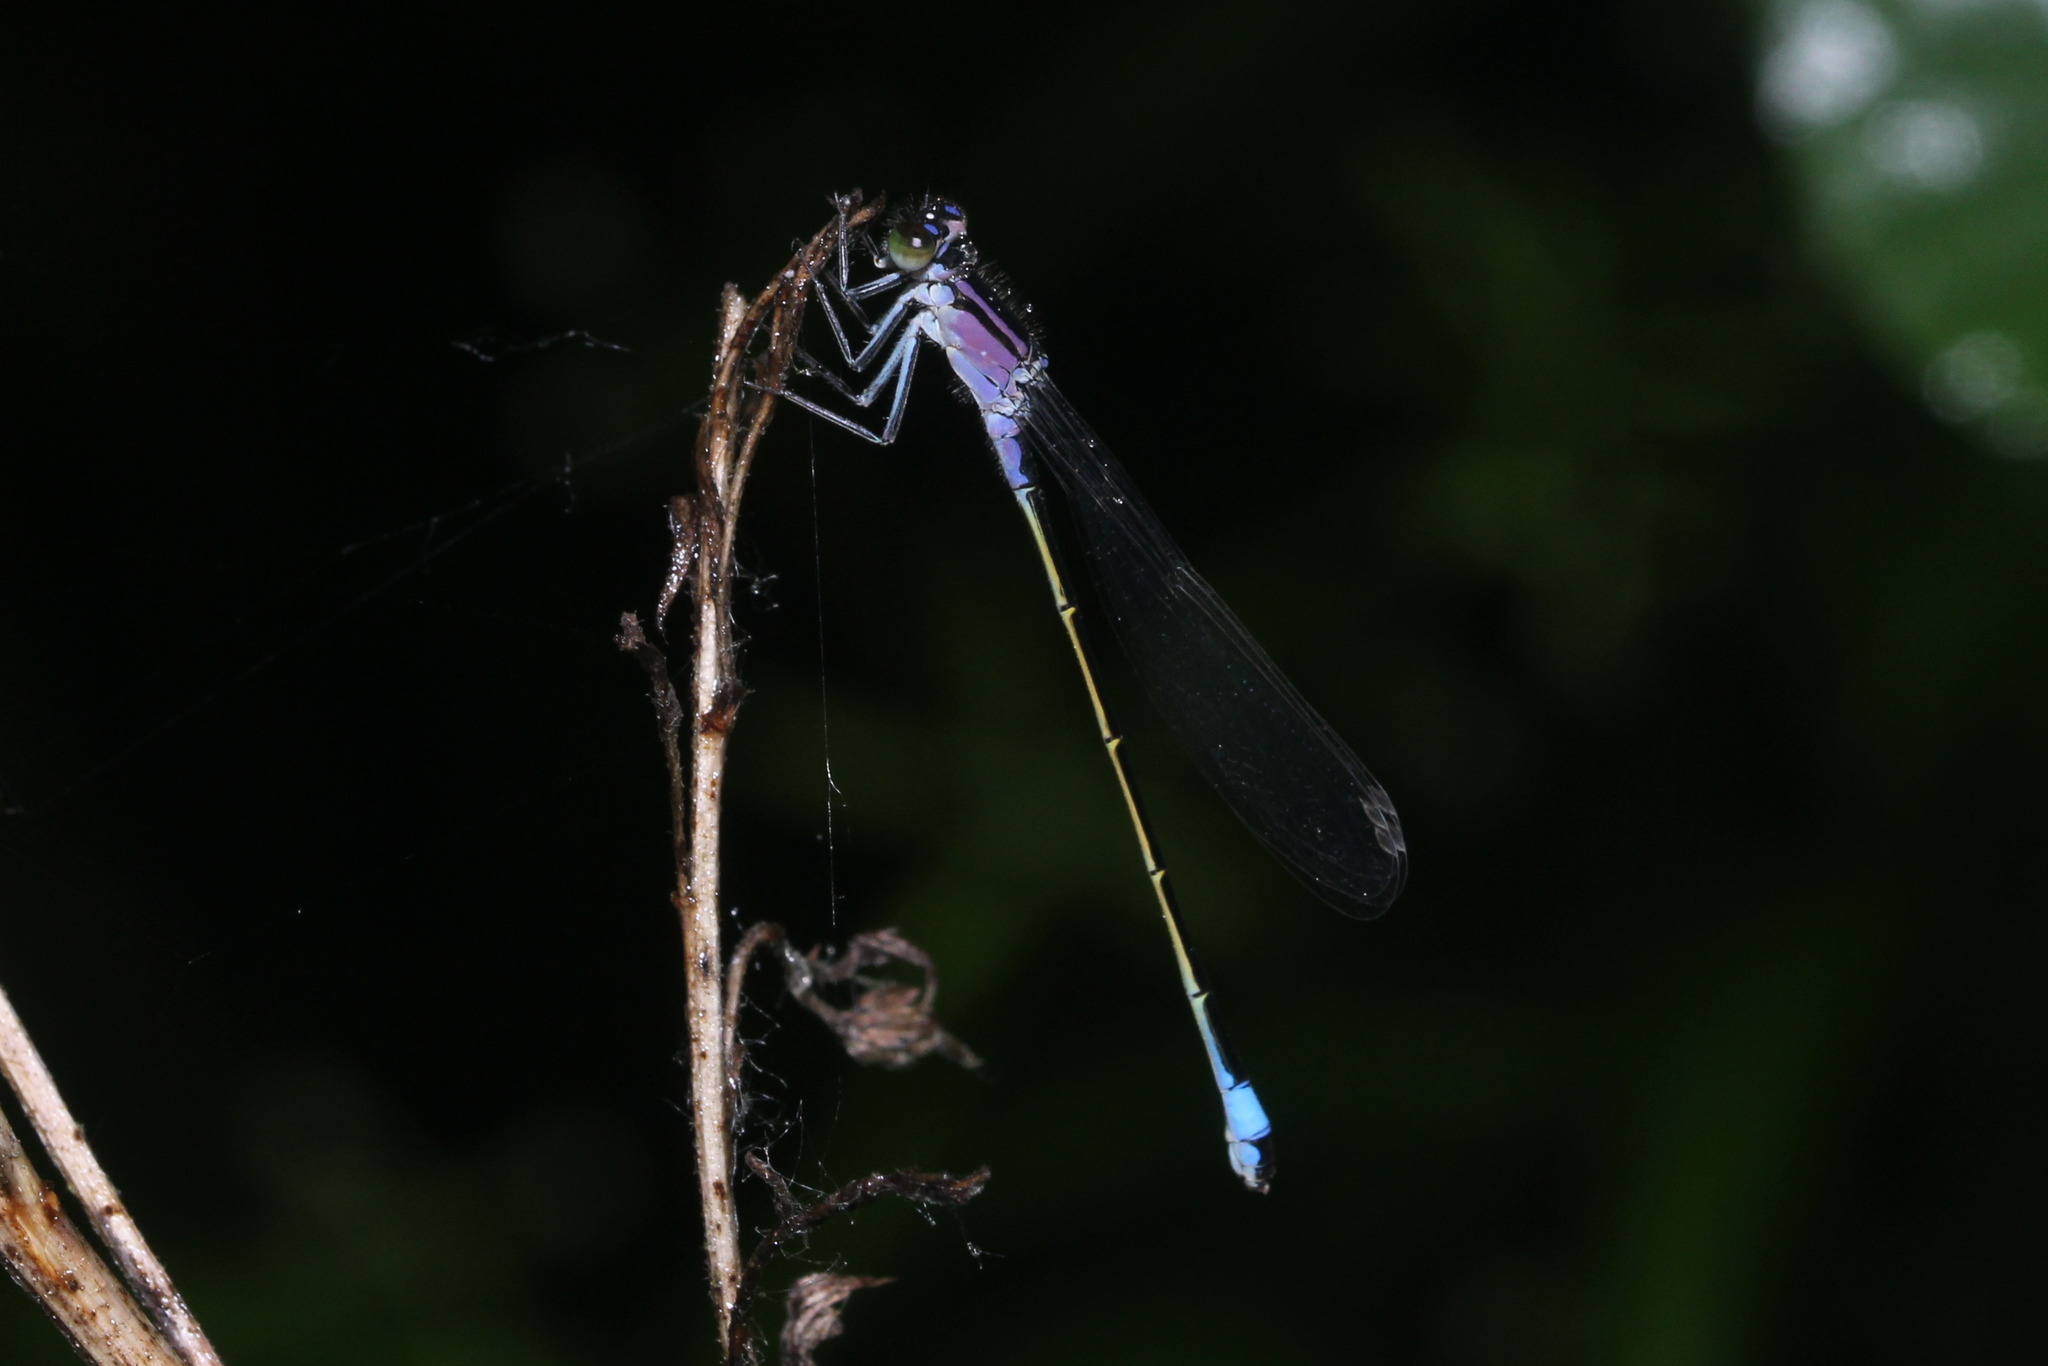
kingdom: Animalia
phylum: Arthropoda
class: Insecta
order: Odonata
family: Coenagrionidae
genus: Ischnura
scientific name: Ischnura elegans
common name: Blue-tailed damselfly
